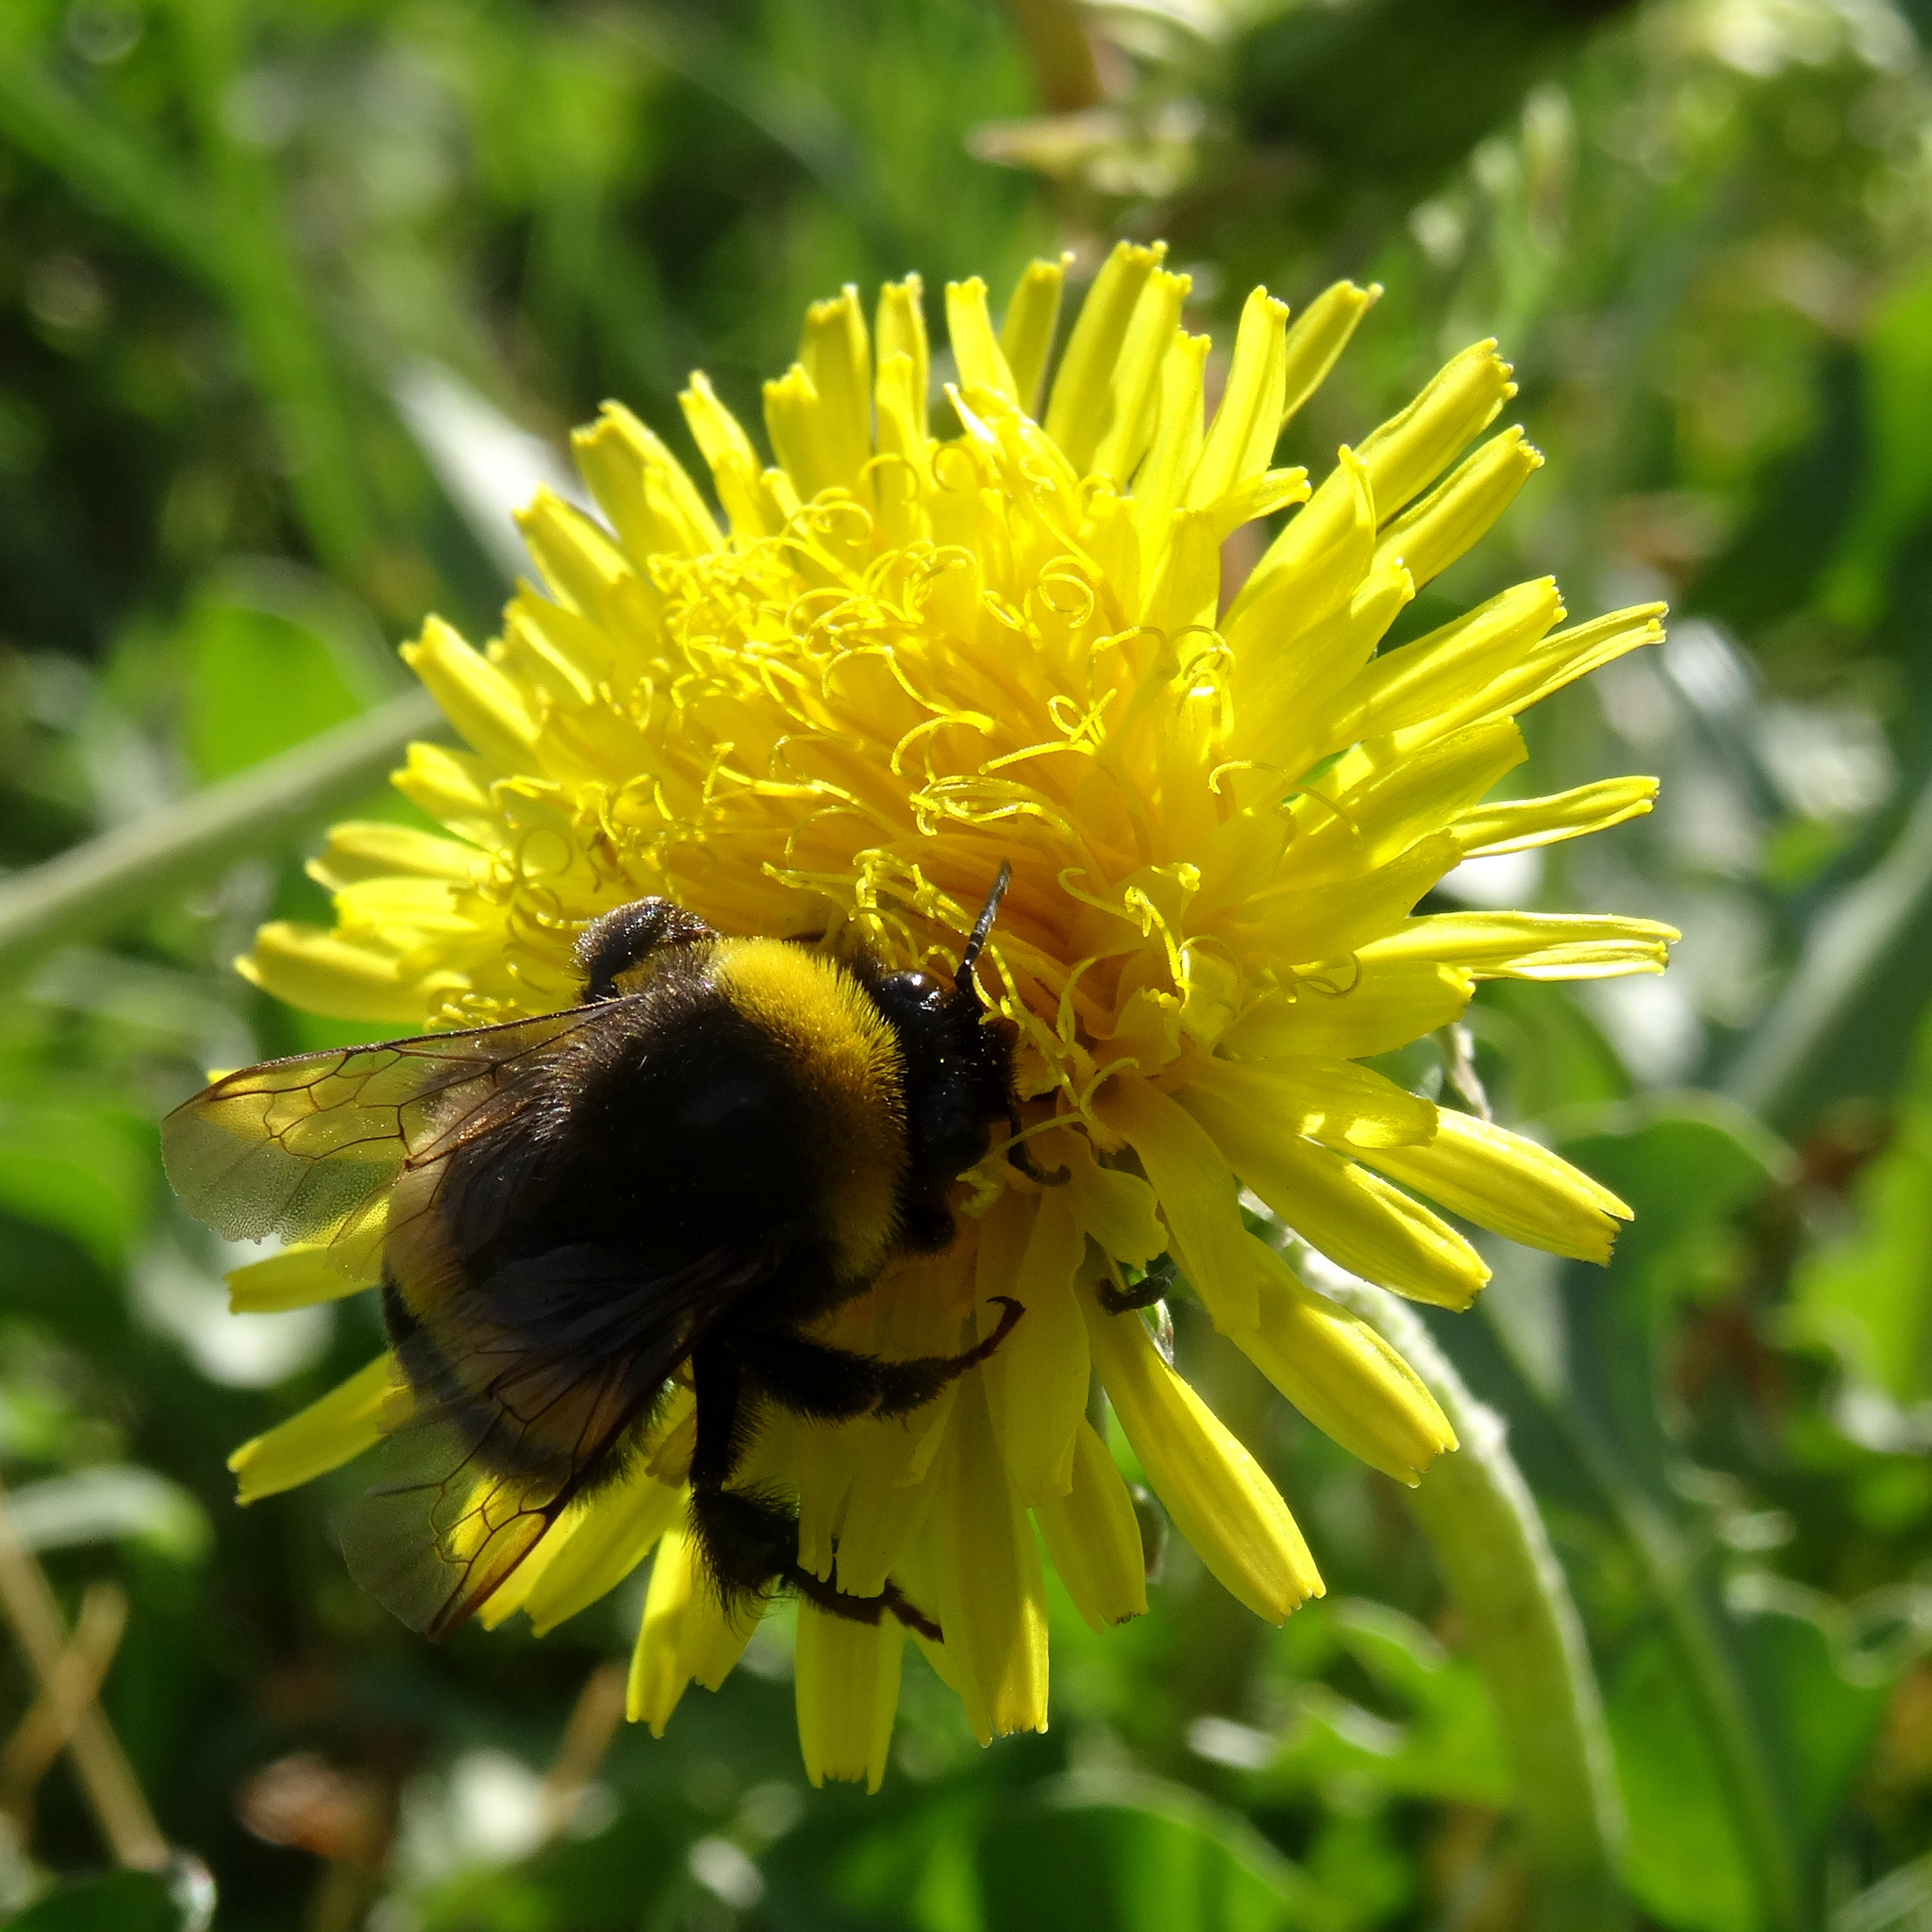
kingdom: Animalia
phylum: Arthropoda
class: Insecta
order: Hymenoptera
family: Apidae
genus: Bombus
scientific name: Bombus terrestris
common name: Buff-tailed bumblebee
